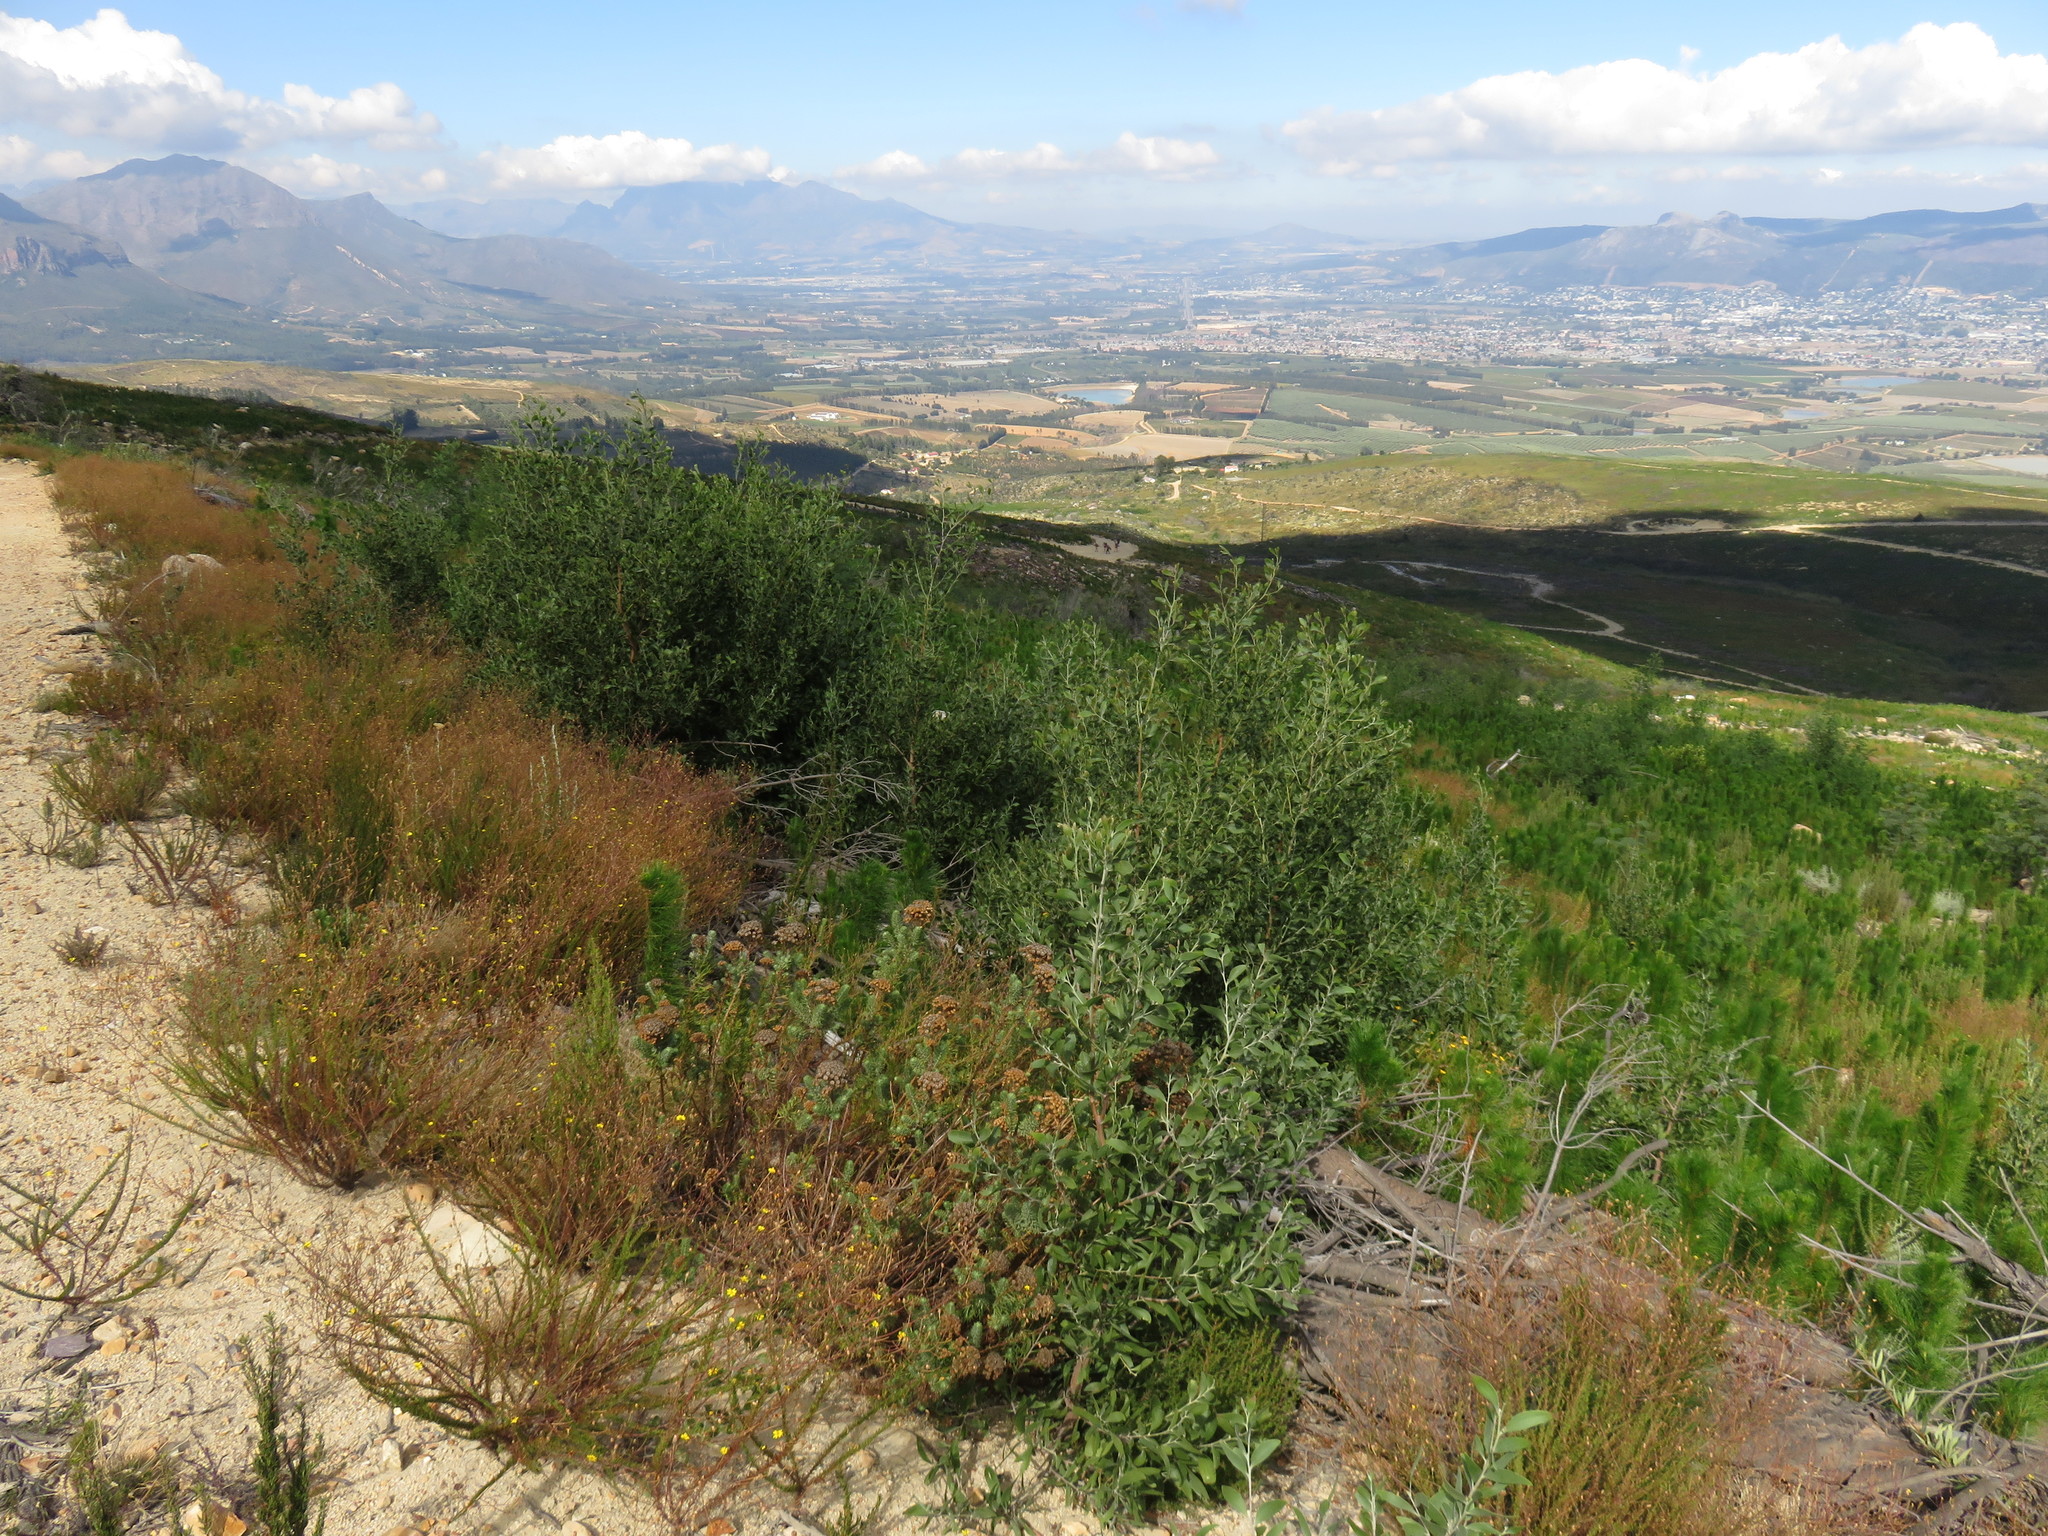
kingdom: Plantae
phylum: Tracheophyta
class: Magnoliopsida
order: Fabales
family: Fabaceae
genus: Acacia
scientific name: Acacia melanoxylon
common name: Blackwood
